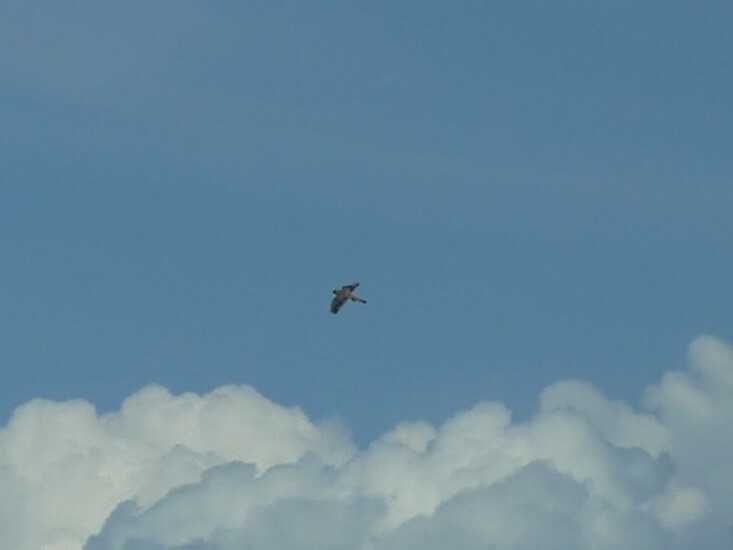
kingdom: Animalia
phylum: Chordata
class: Aves
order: Falconiformes
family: Falconidae
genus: Falco
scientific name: Falco sparverius
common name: American kestrel
